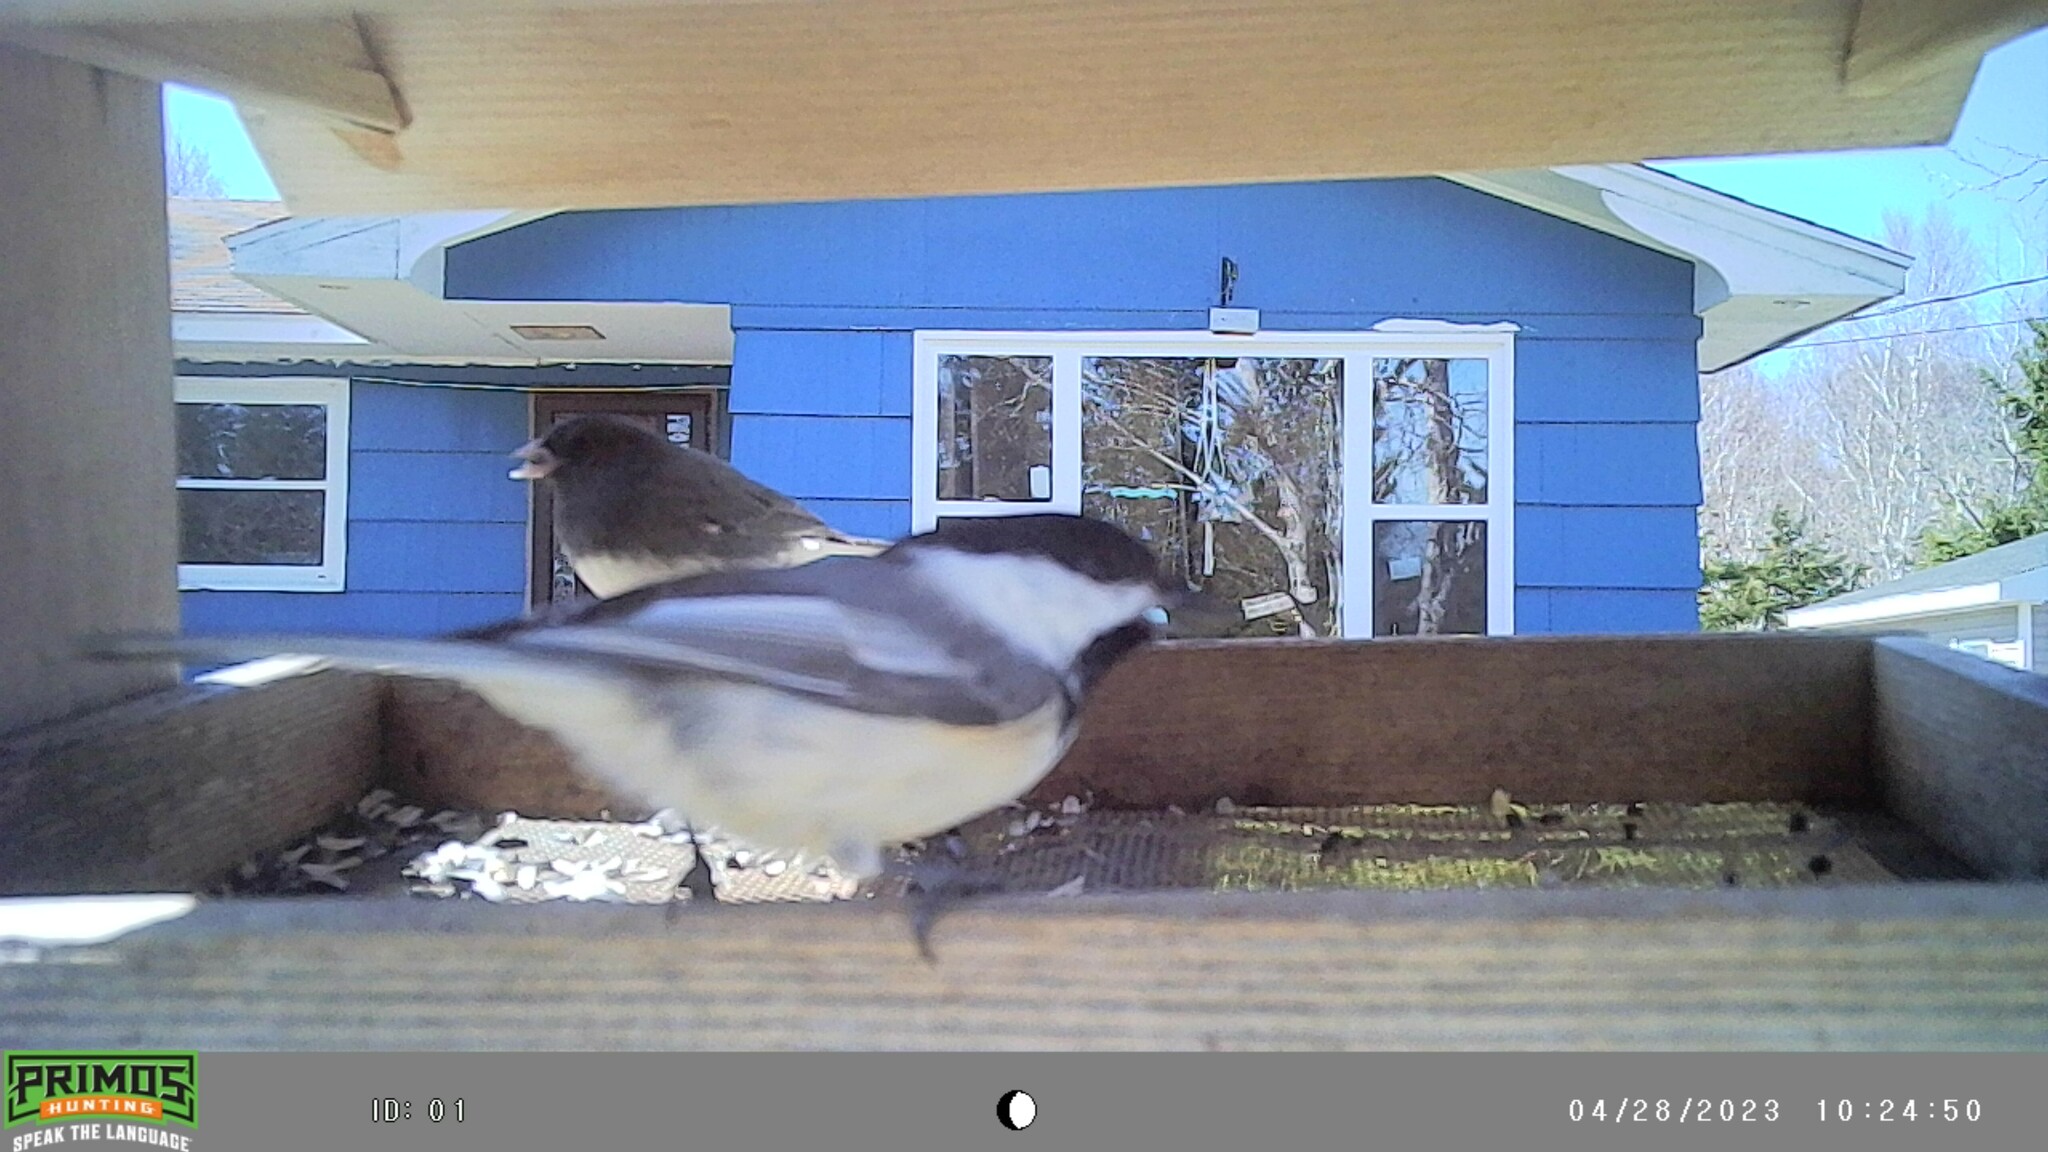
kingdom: Animalia
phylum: Chordata
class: Aves
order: Passeriformes
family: Paridae
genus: Poecile
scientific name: Poecile atricapillus
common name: Black-capped chickadee
